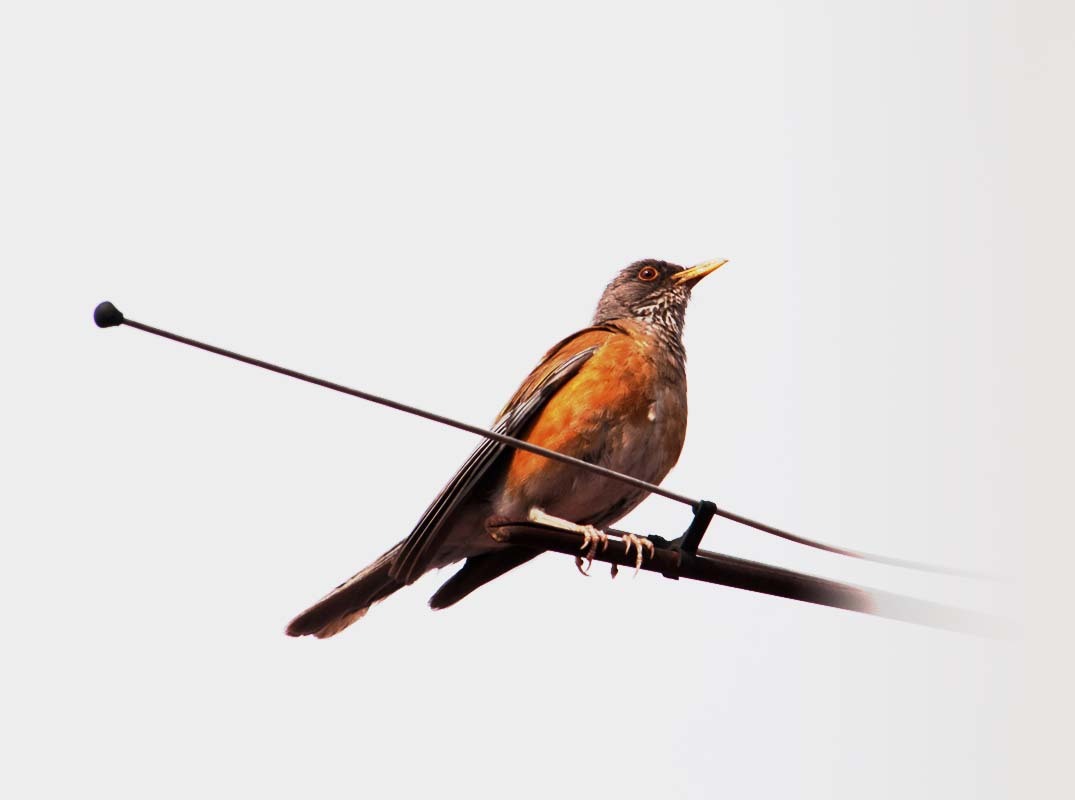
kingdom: Animalia
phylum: Chordata
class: Aves
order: Passeriformes
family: Turdidae
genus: Turdus
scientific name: Turdus rufopalliatus
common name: Rufous-backed robin
